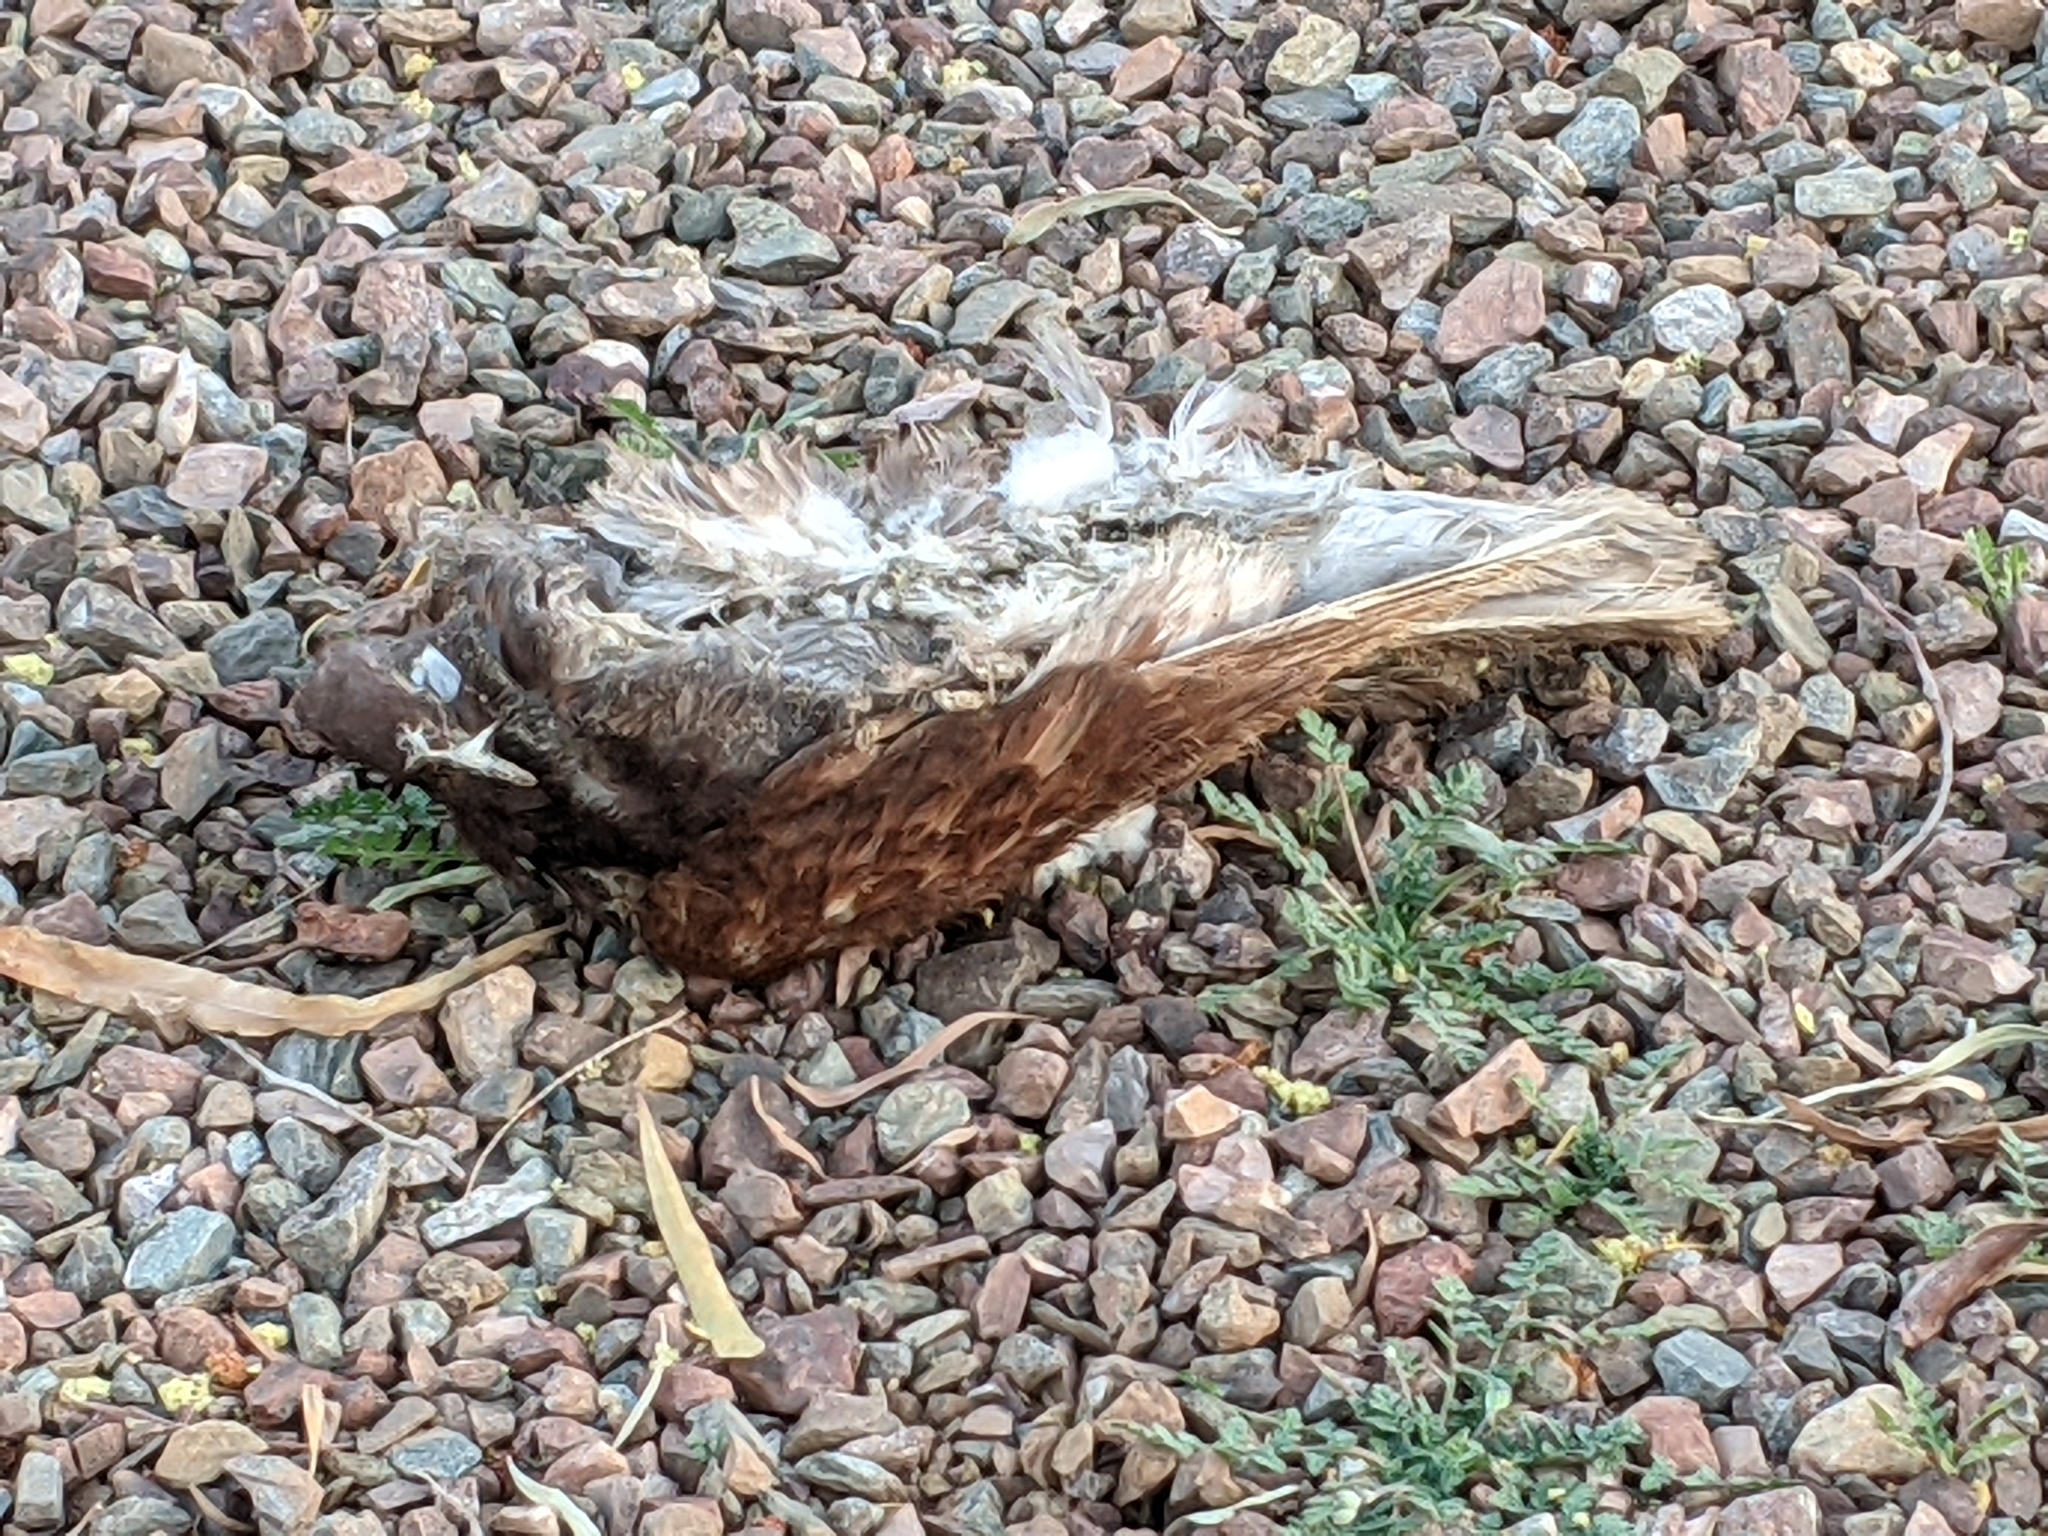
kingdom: Animalia
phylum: Chordata
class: Aves
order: Columbiformes
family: Columbidae
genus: Columba
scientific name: Columba livia
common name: Rock pigeon
